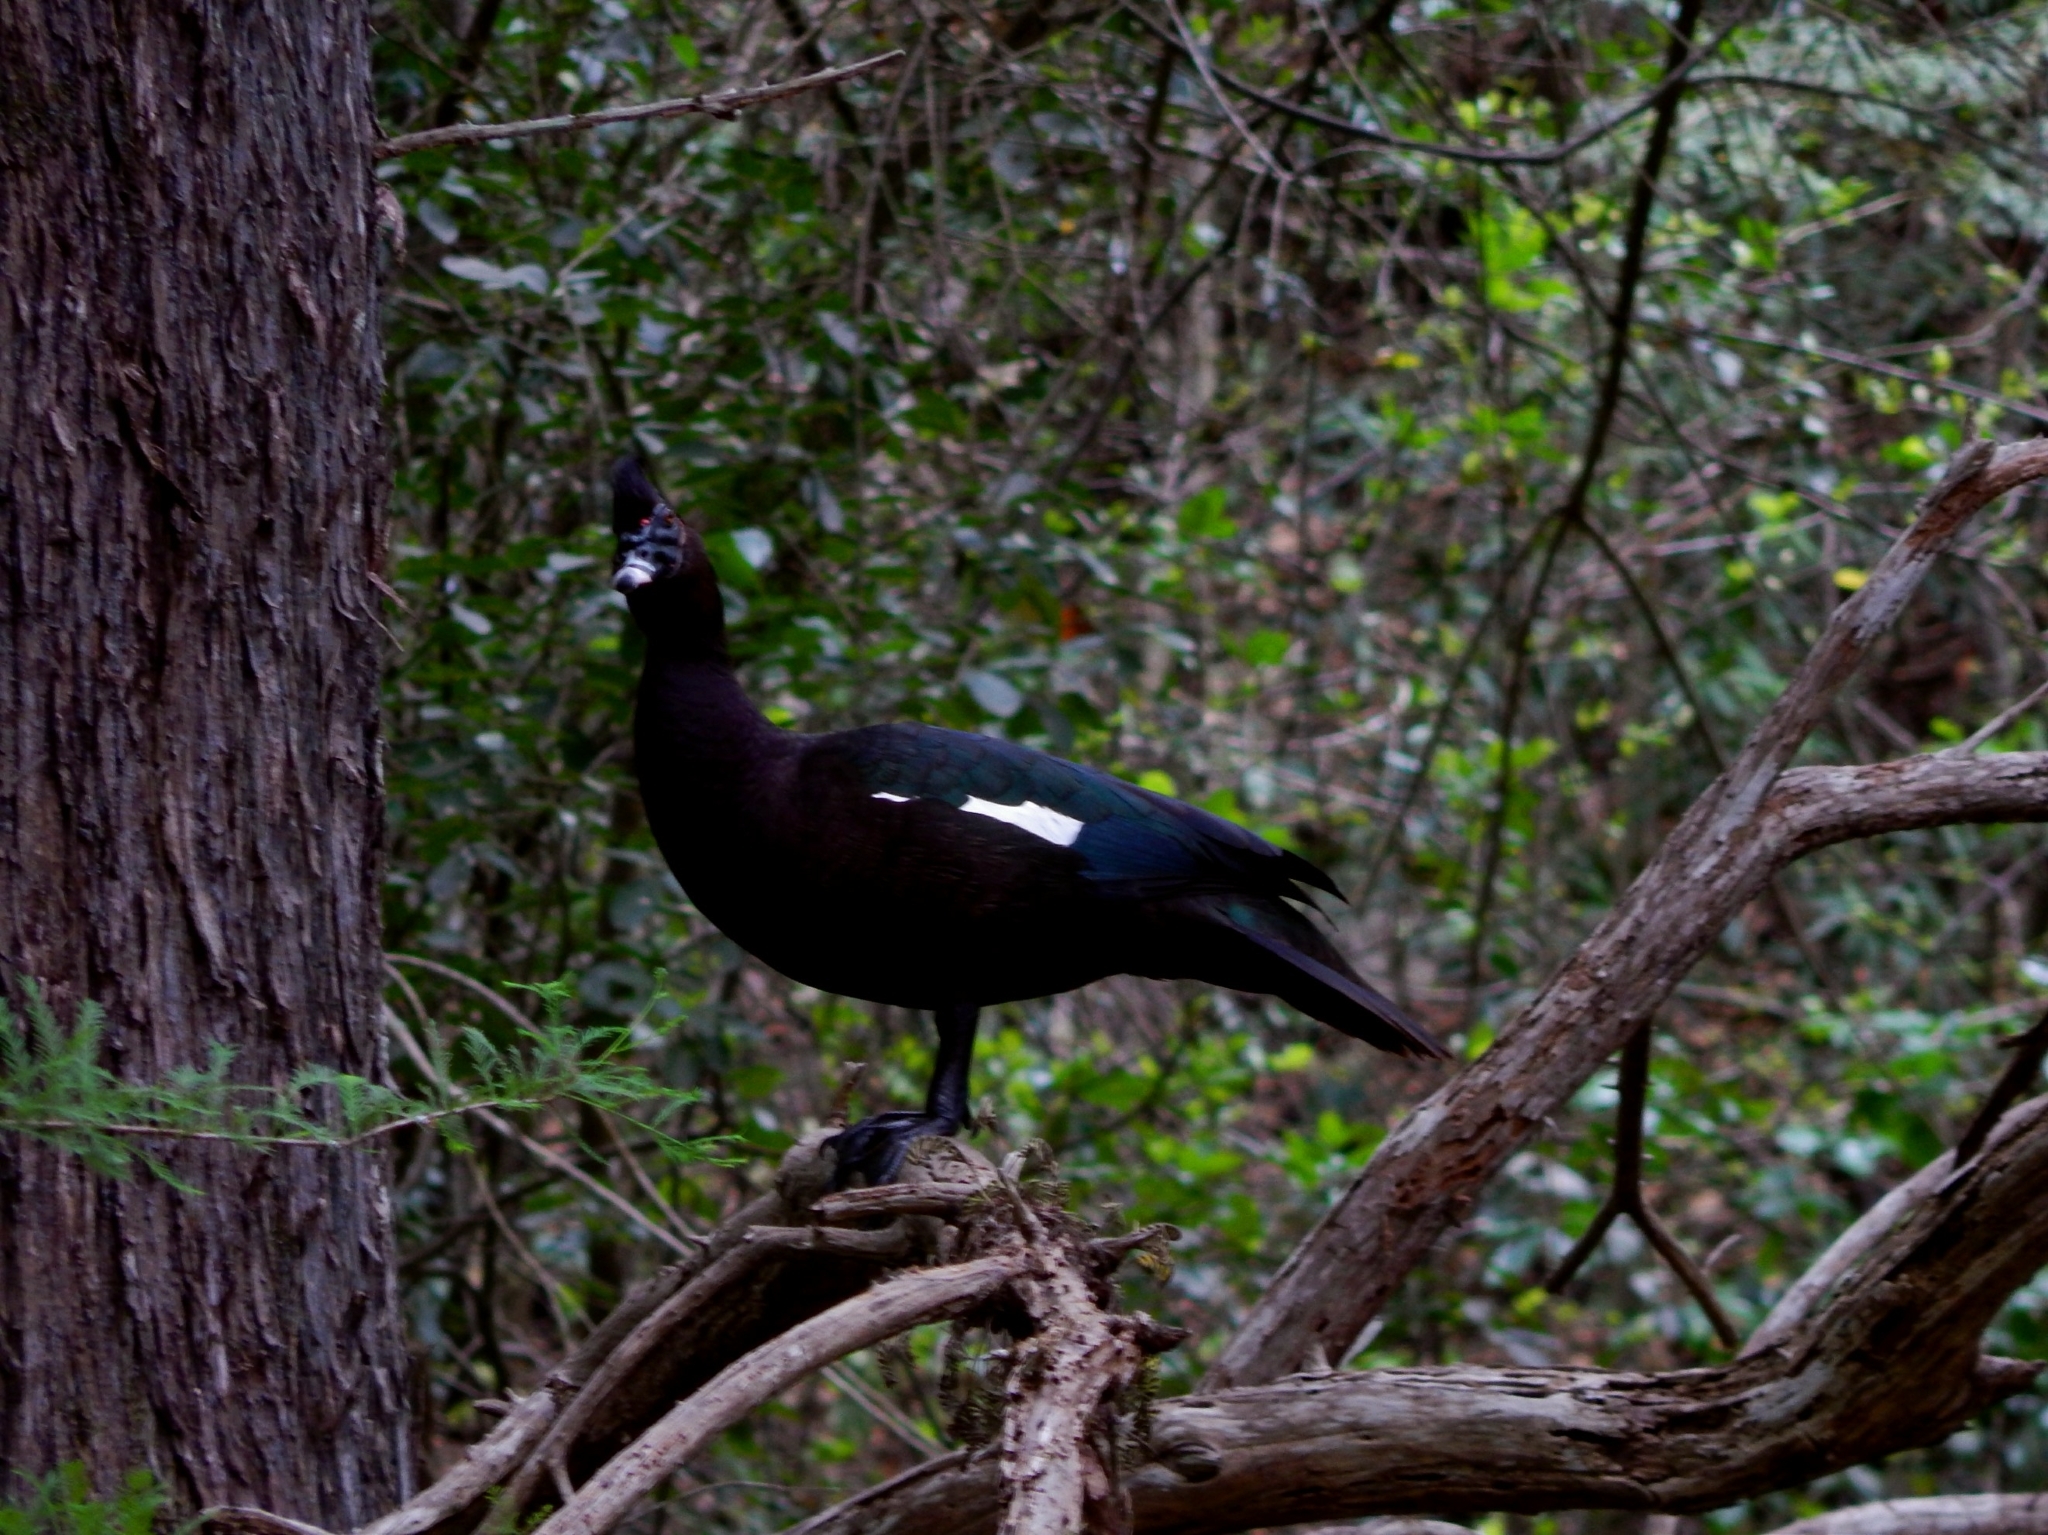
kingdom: Animalia
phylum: Chordata
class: Aves
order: Anseriformes
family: Anatidae
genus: Cairina
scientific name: Cairina moschata
